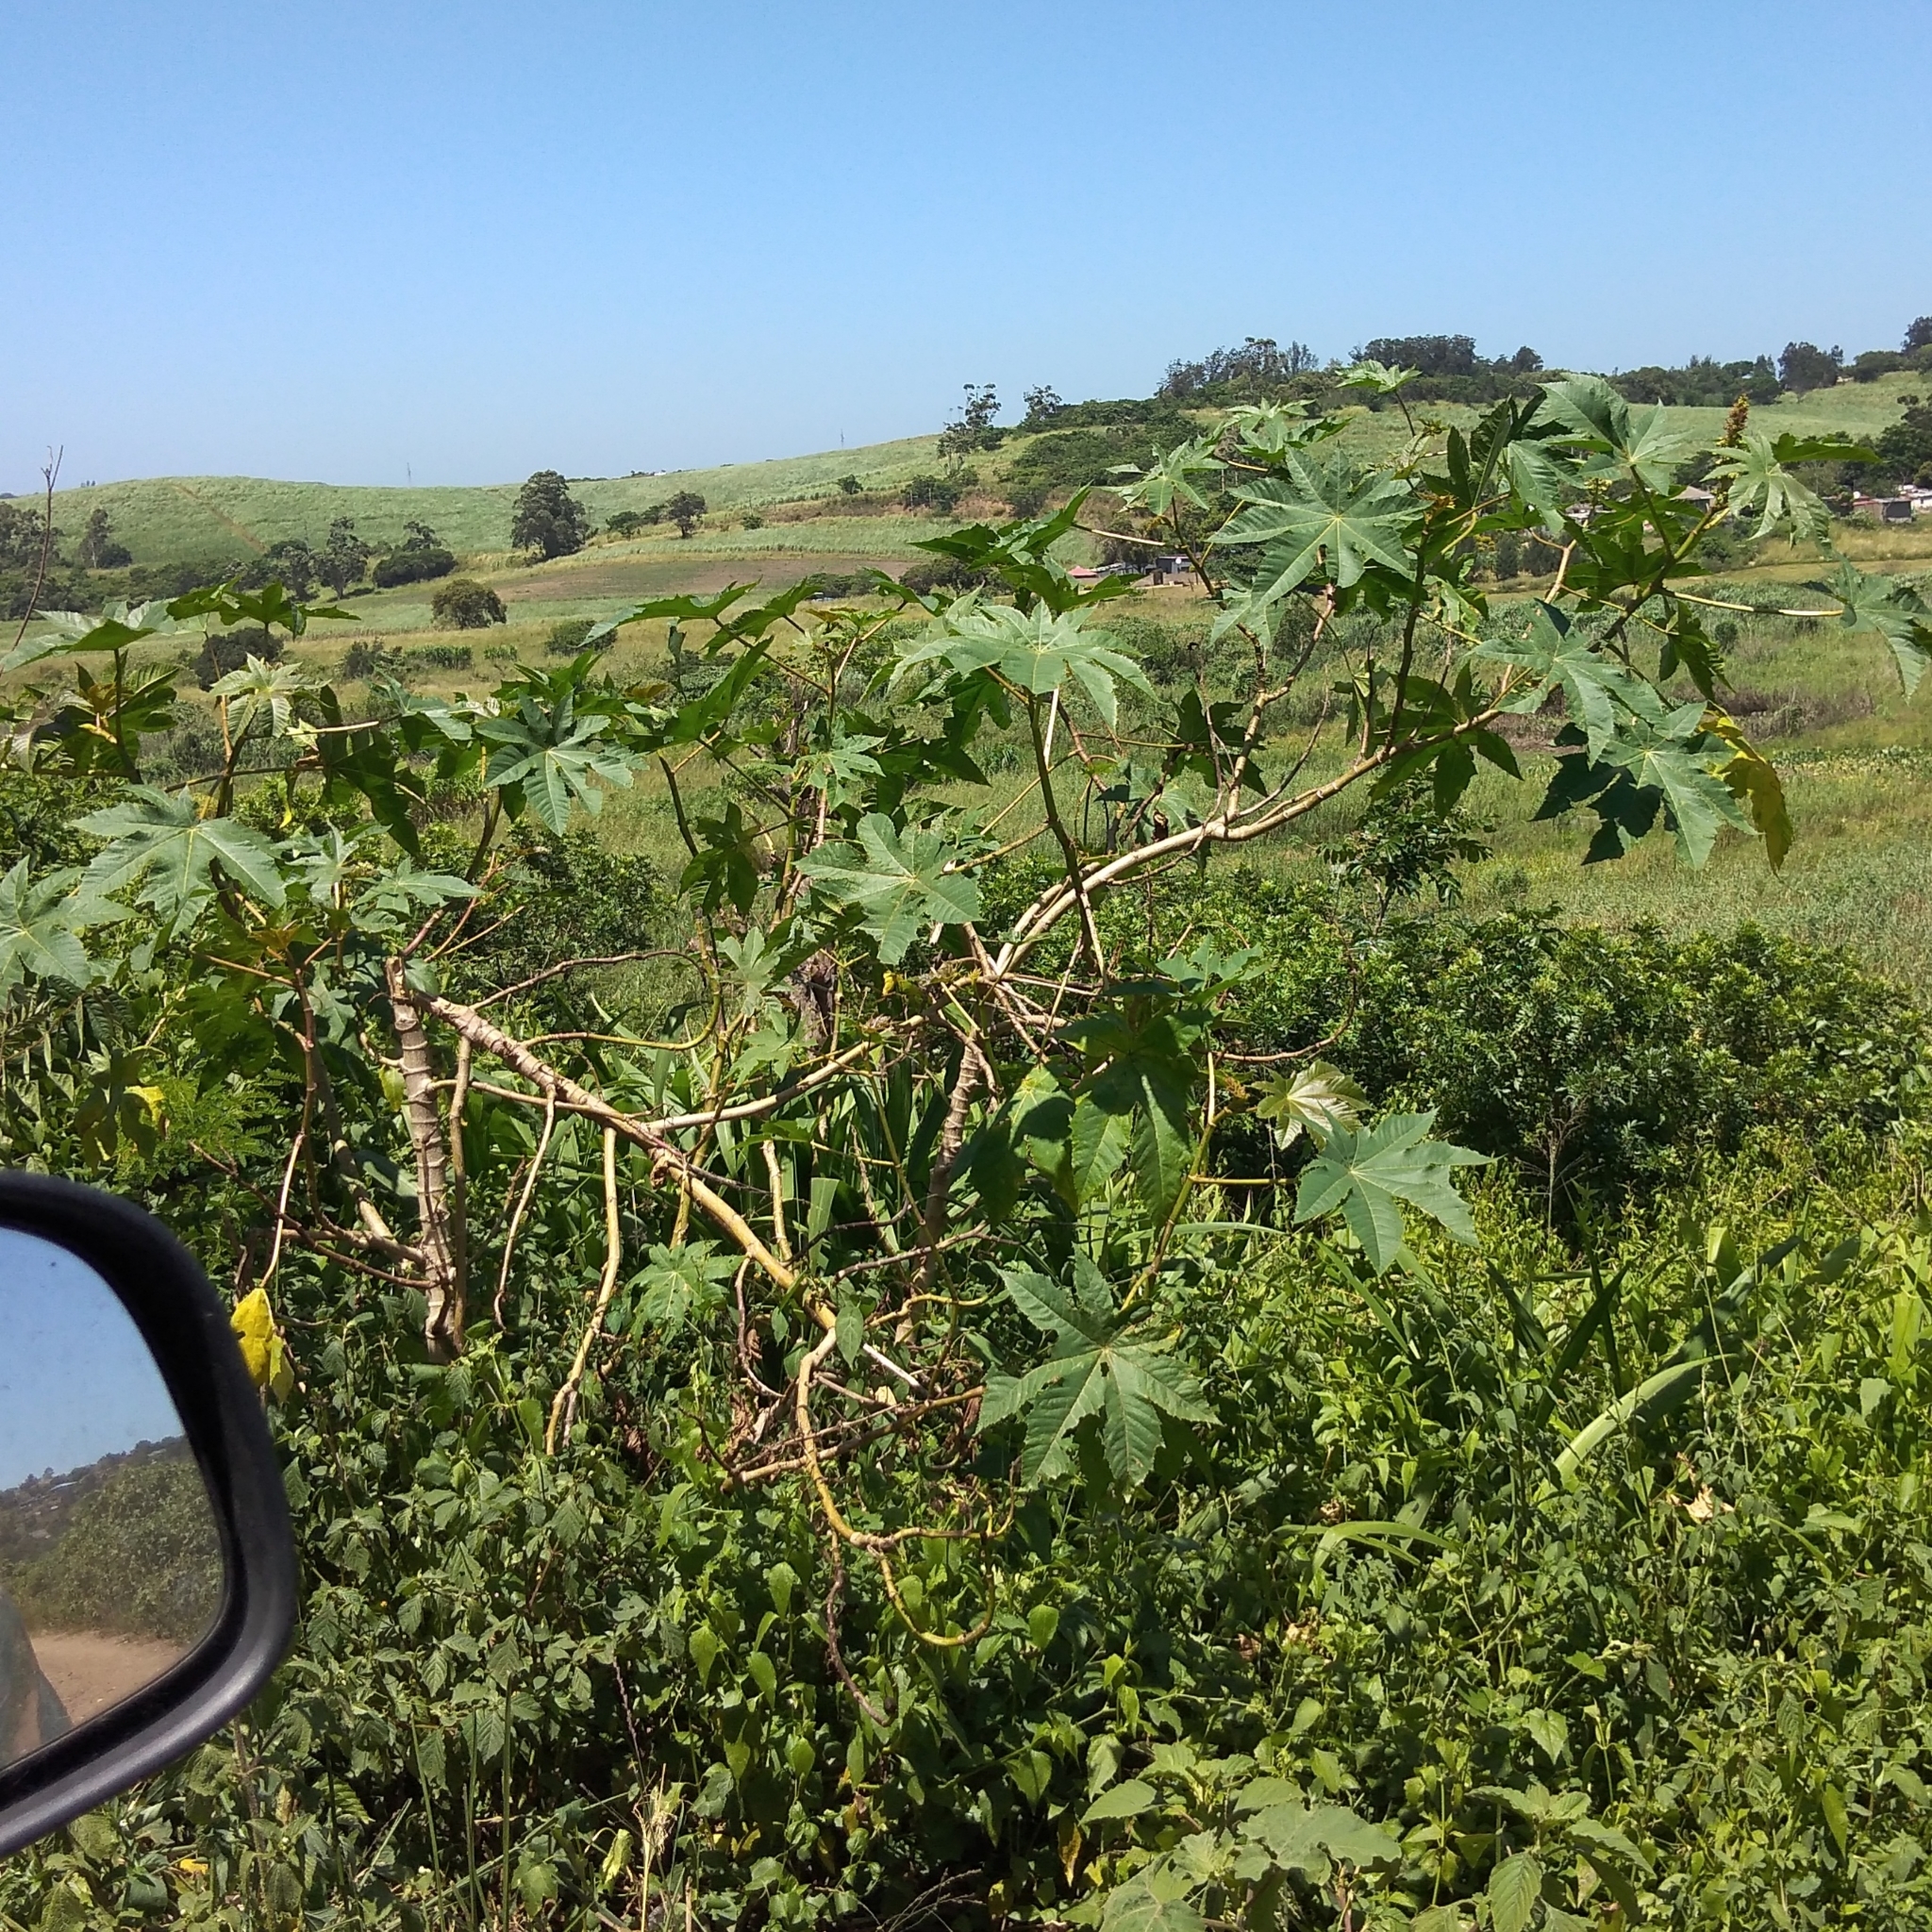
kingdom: Plantae
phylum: Tracheophyta
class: Magnoliopsida
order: Malpighiales
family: Euphorbiaceae
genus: Ricinus
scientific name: Ricinus communis
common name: Castor-oil-plant
